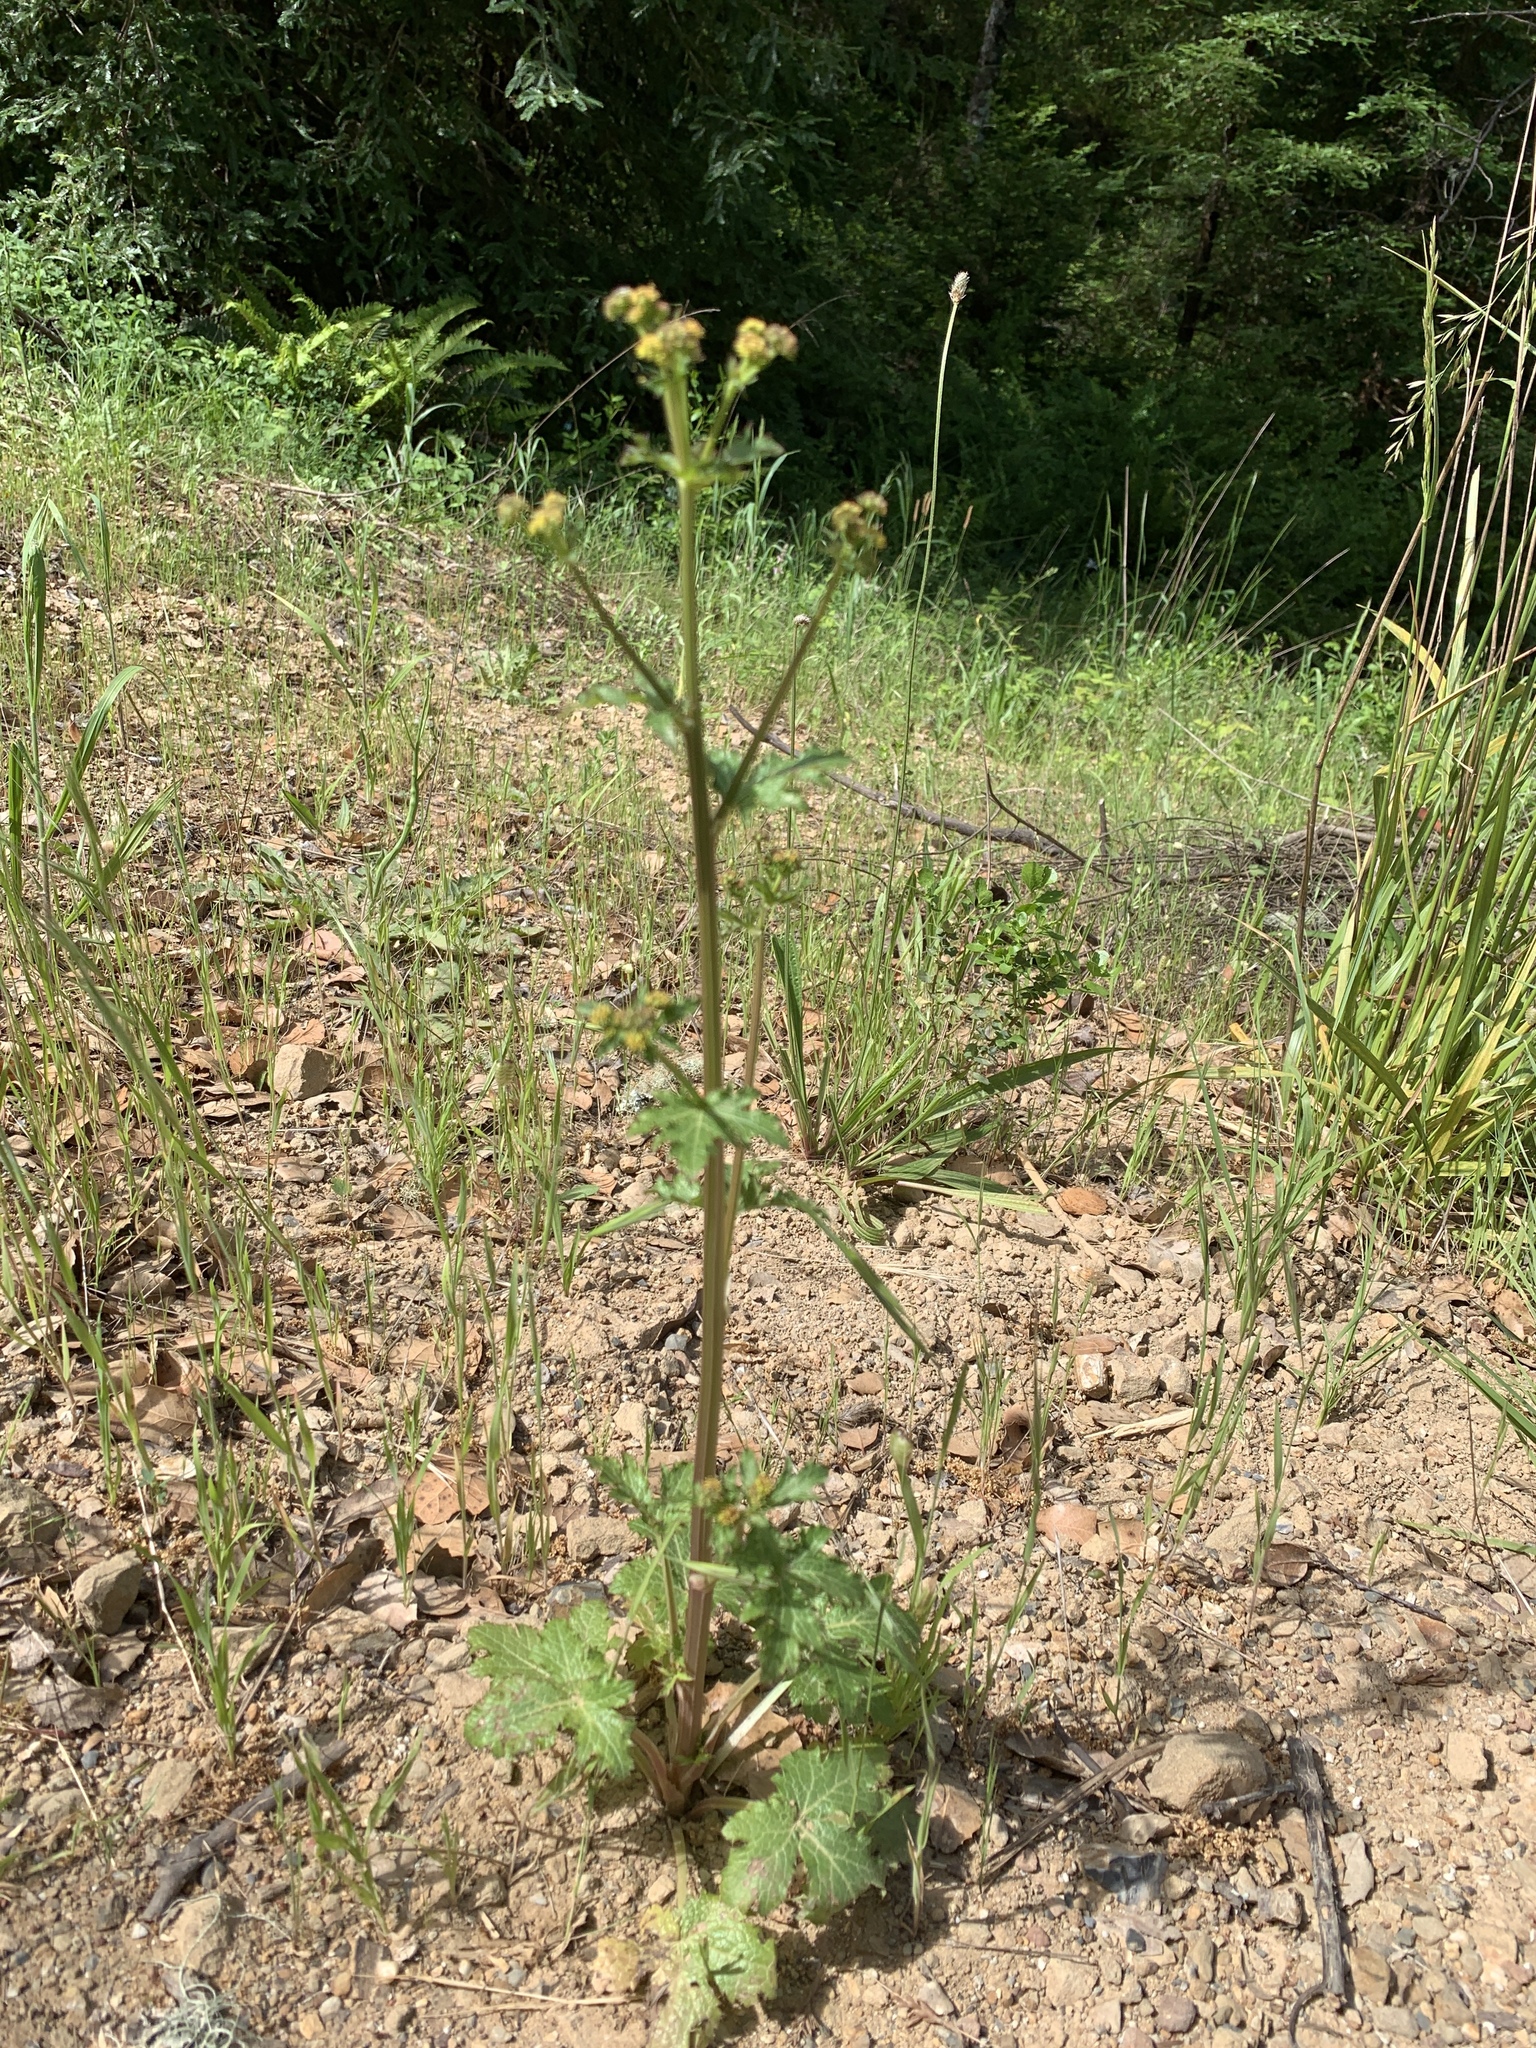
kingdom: Plantae
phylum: Tracheophyta
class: Magnoliopsida
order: Apiales
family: Apiaceae
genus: Sanicula
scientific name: Sanicula crassicaulis
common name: Western snakeroot
